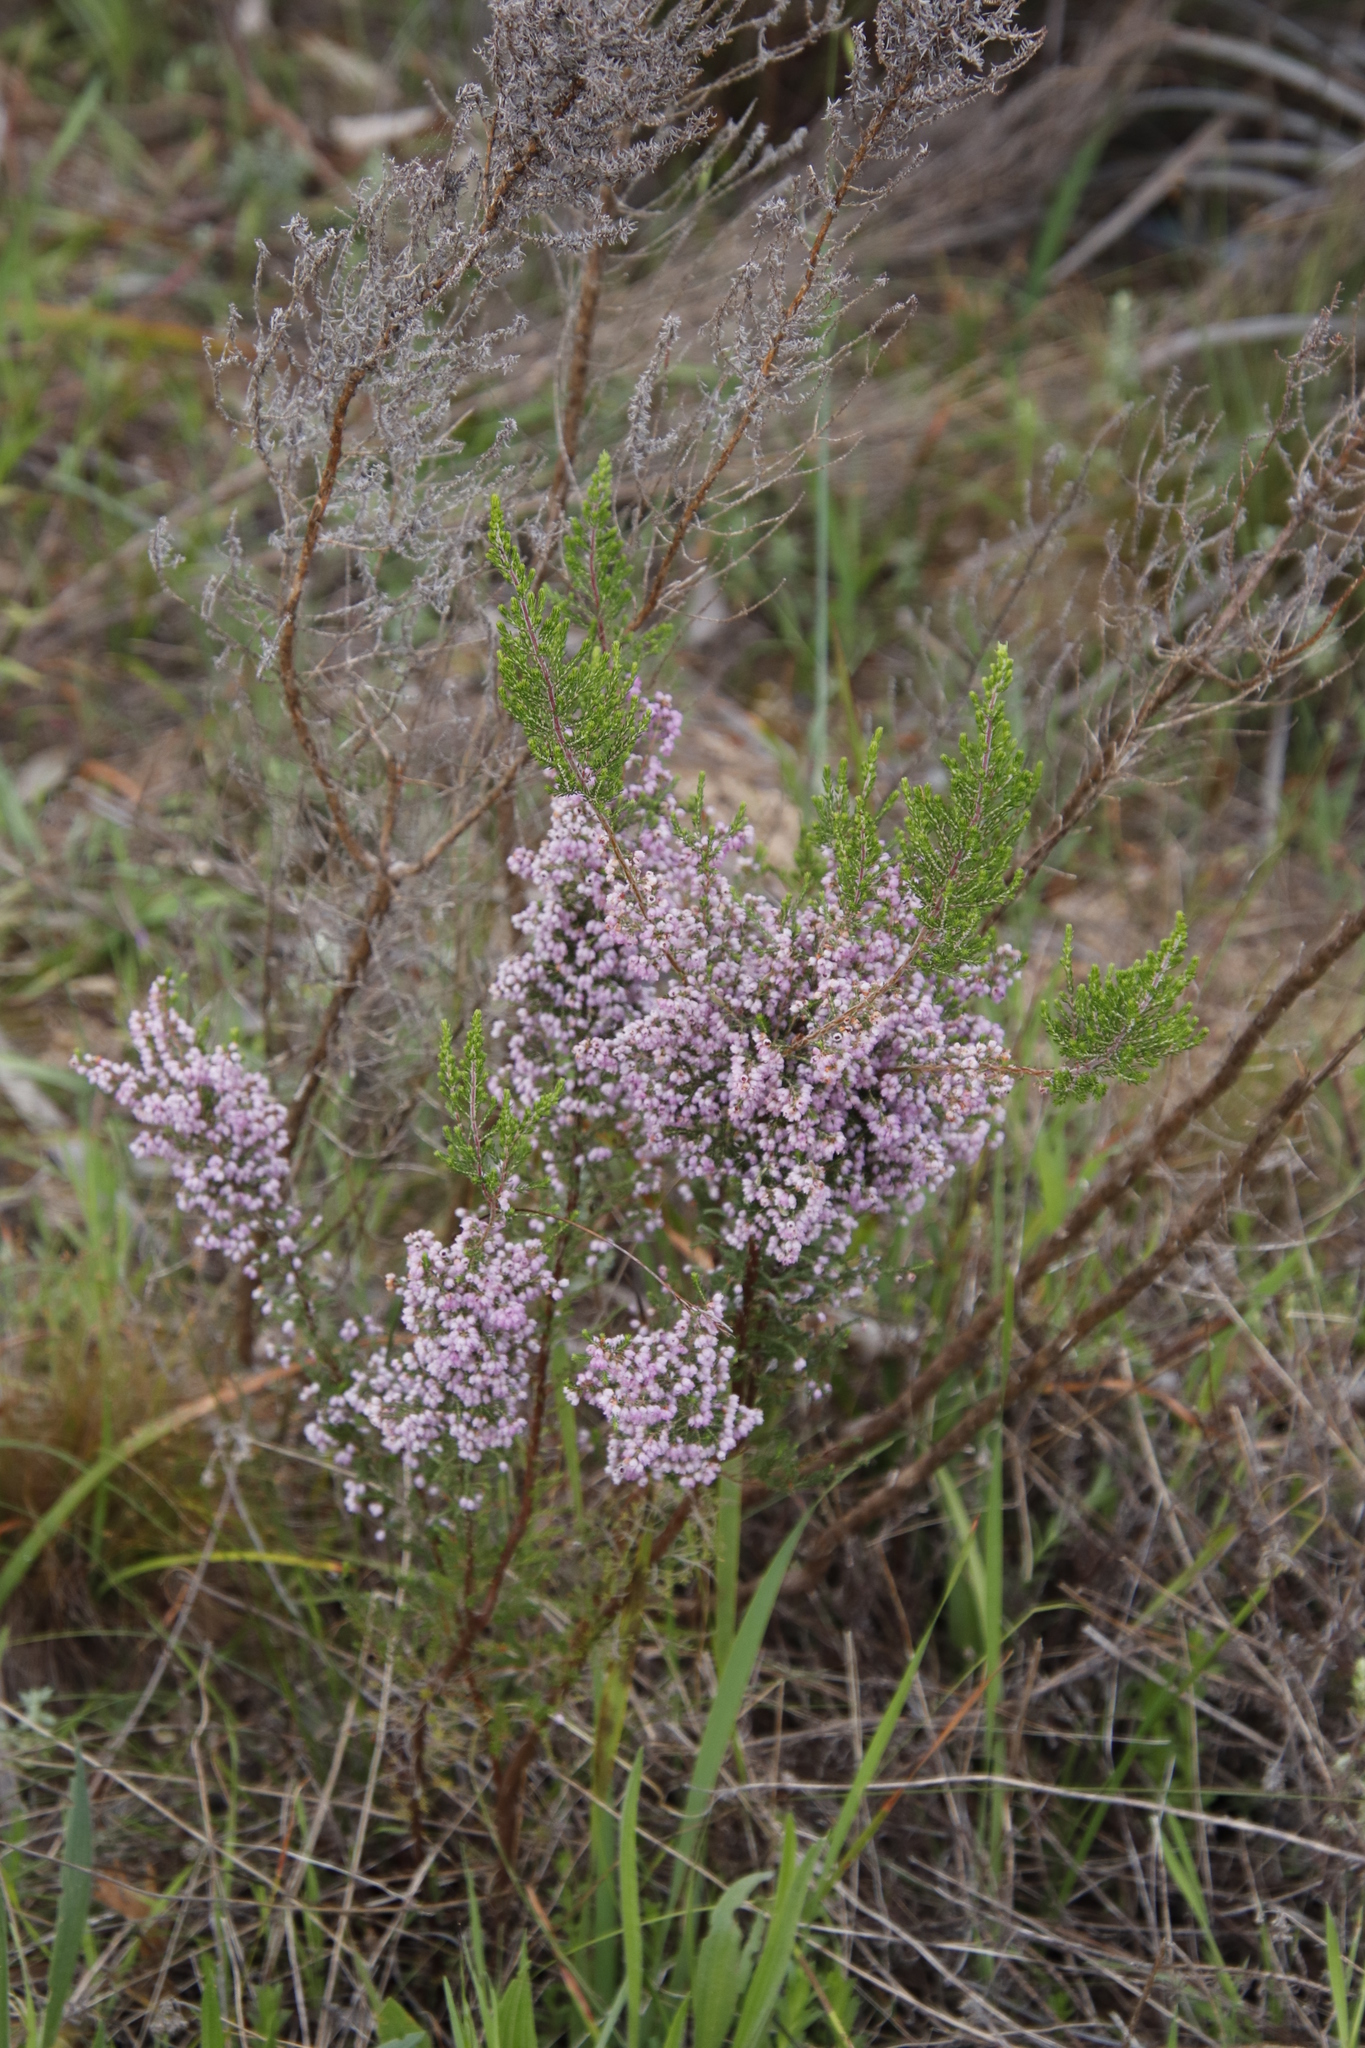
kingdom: Plantae
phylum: Tracheophyta
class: Magnoliopsida
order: Ericales
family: Ericaceae
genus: Erica
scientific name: Erica hirtiflora
